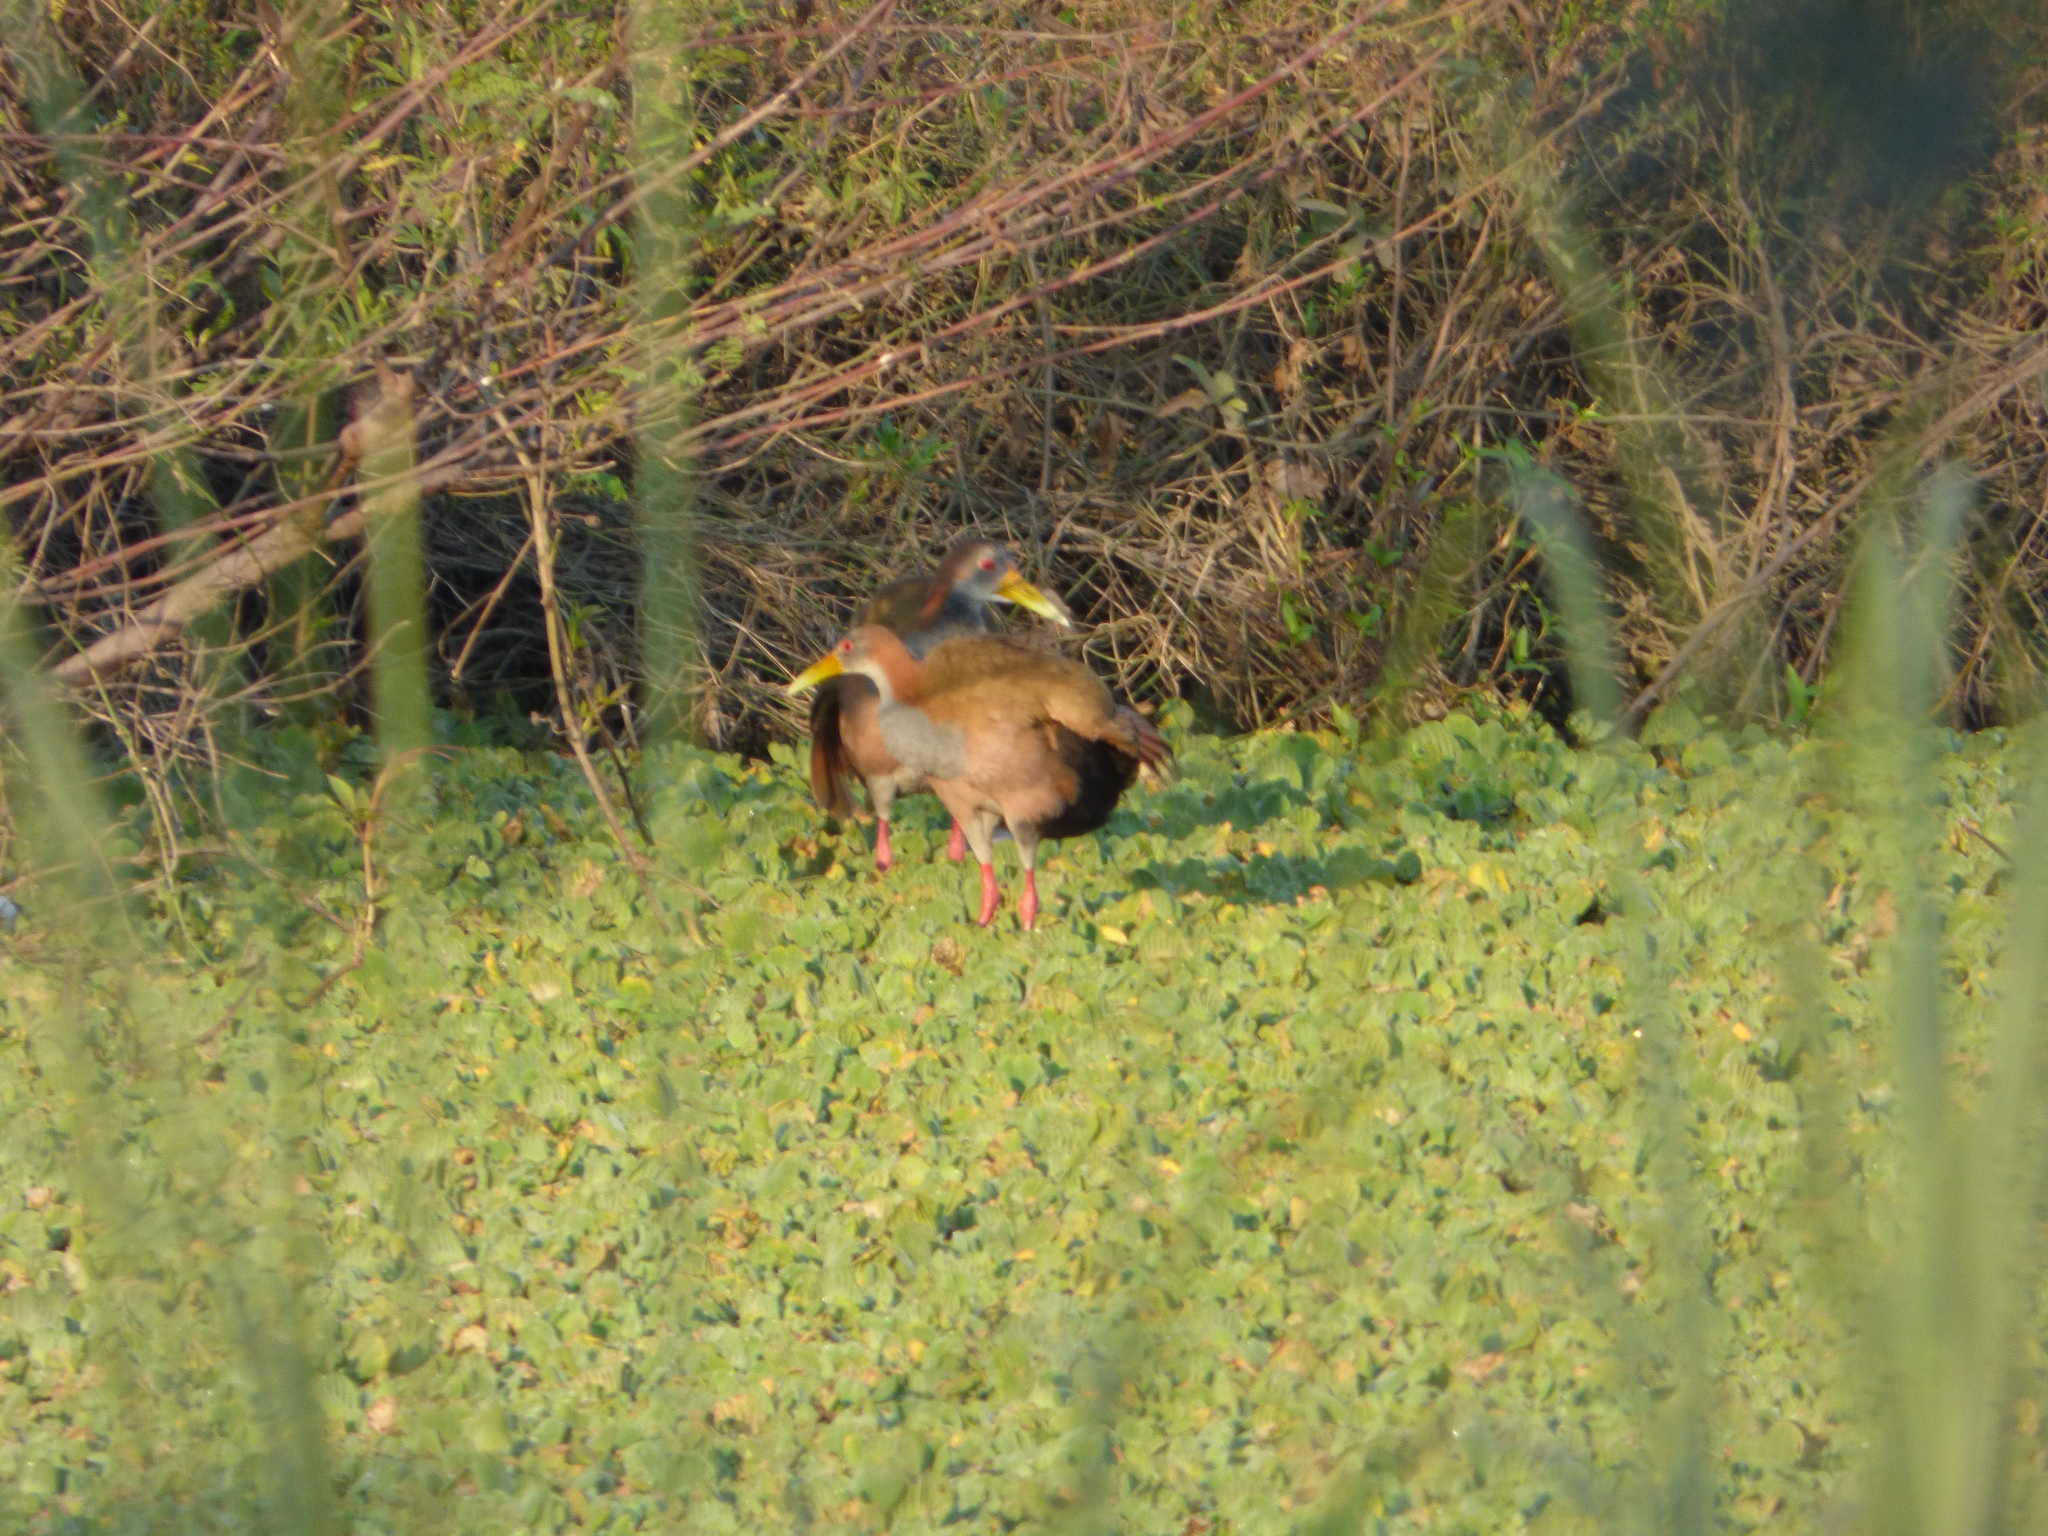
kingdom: Animalia
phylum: Chordata
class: Aves
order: Gruiformes
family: Rallidae
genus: Aramides
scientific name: Aramides ypecaha
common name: Giant wood rail
